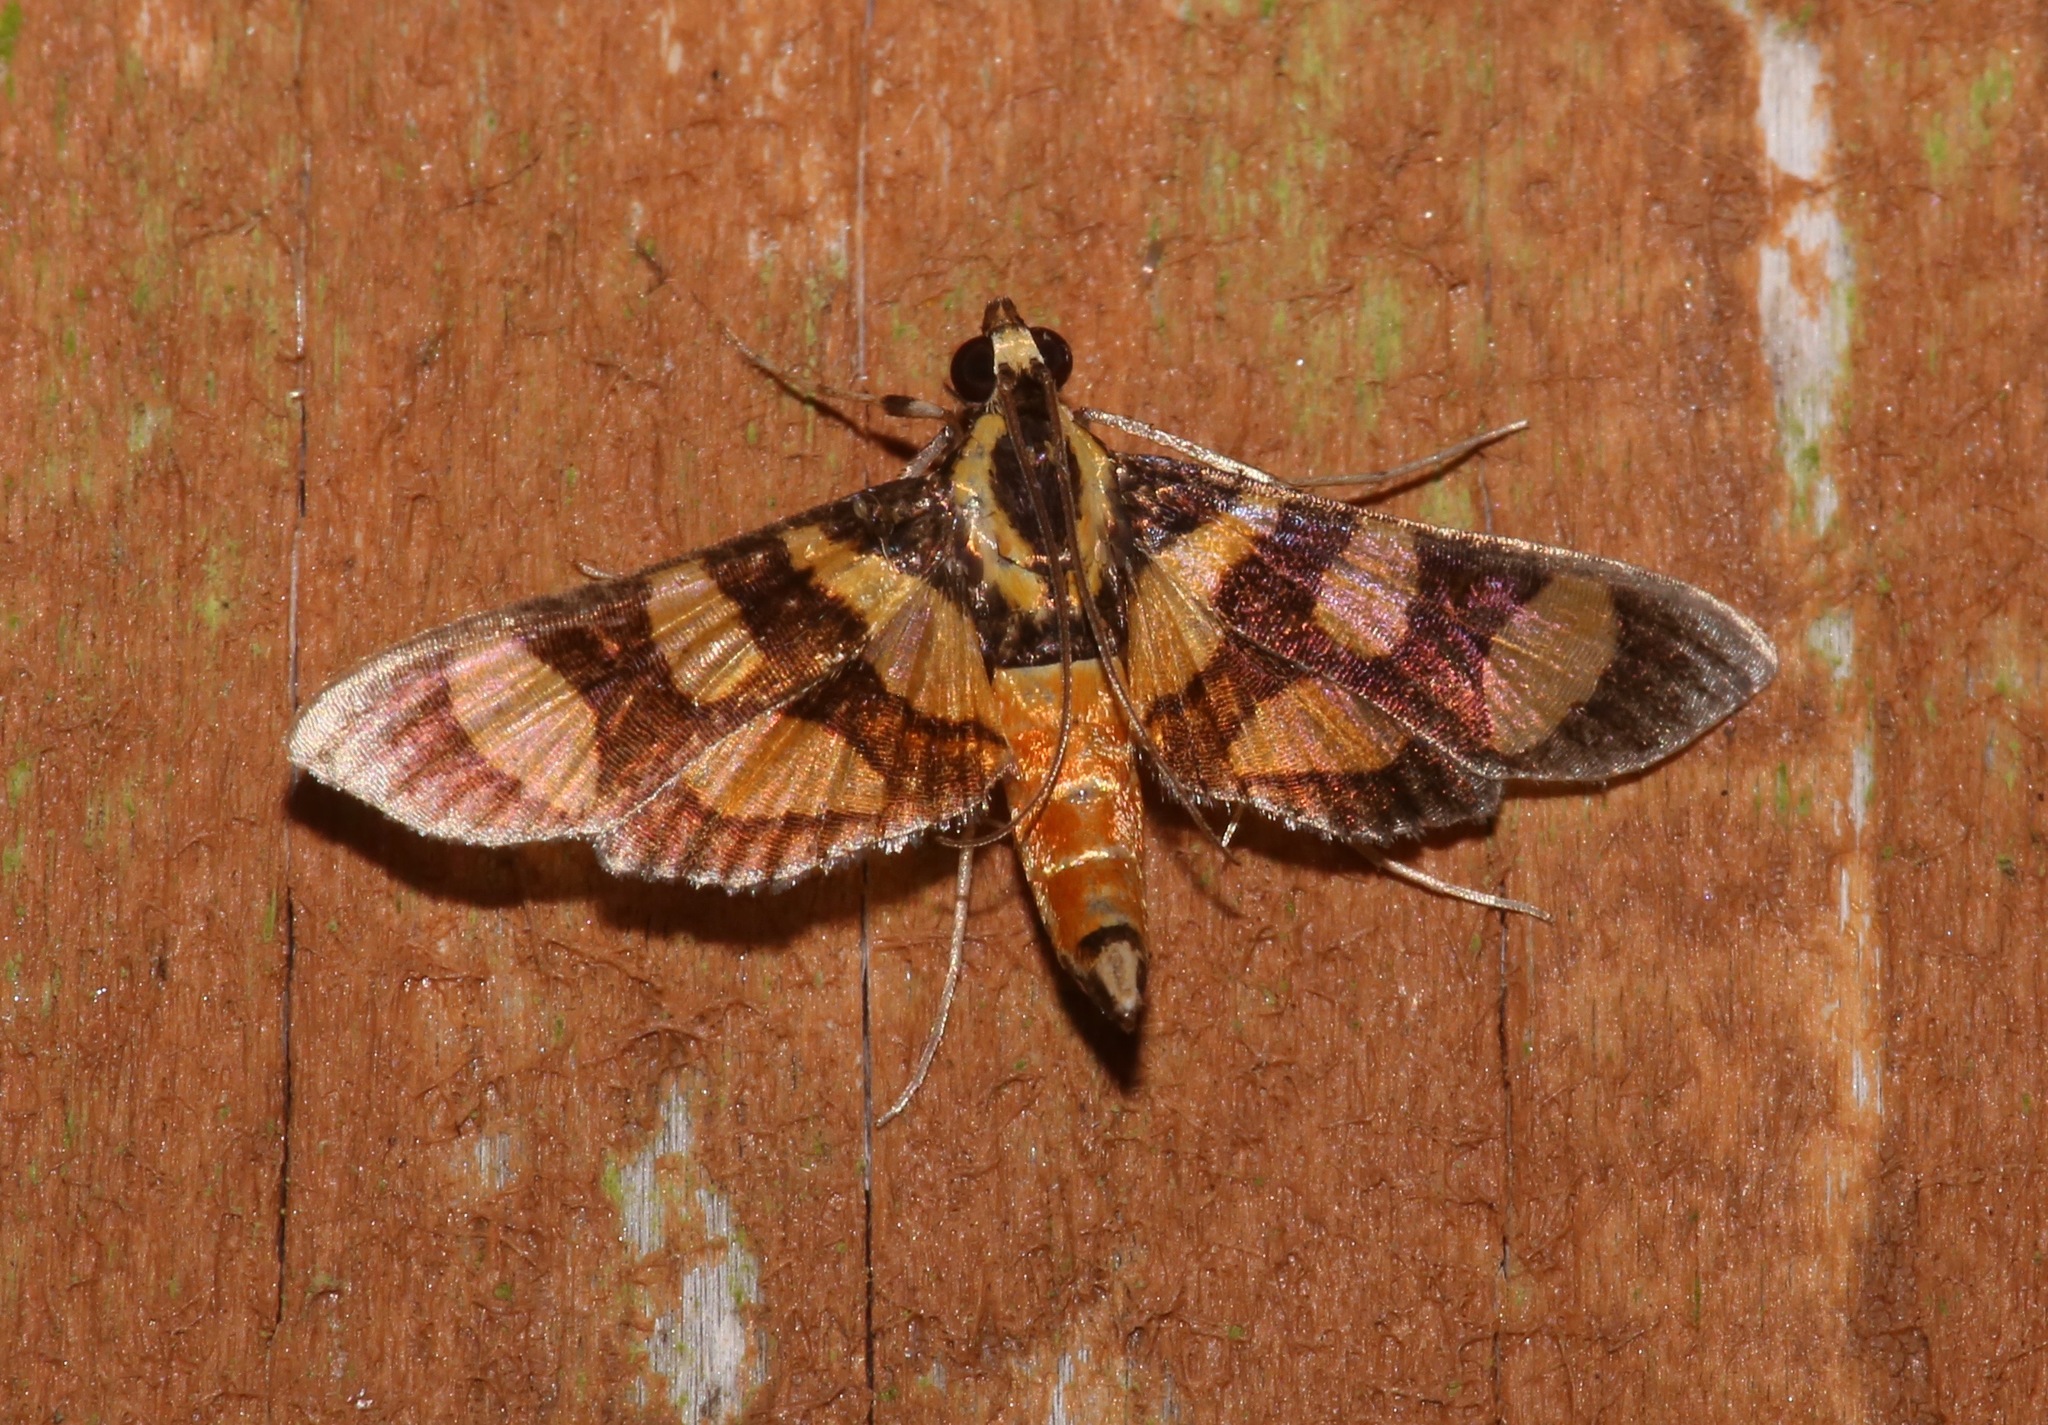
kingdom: Animalia
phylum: Arthropoda
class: Insecta
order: Lepidoptera
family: Crambidae
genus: Syngamia
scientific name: Syngamia florella
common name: Orange-spotted flower moth
